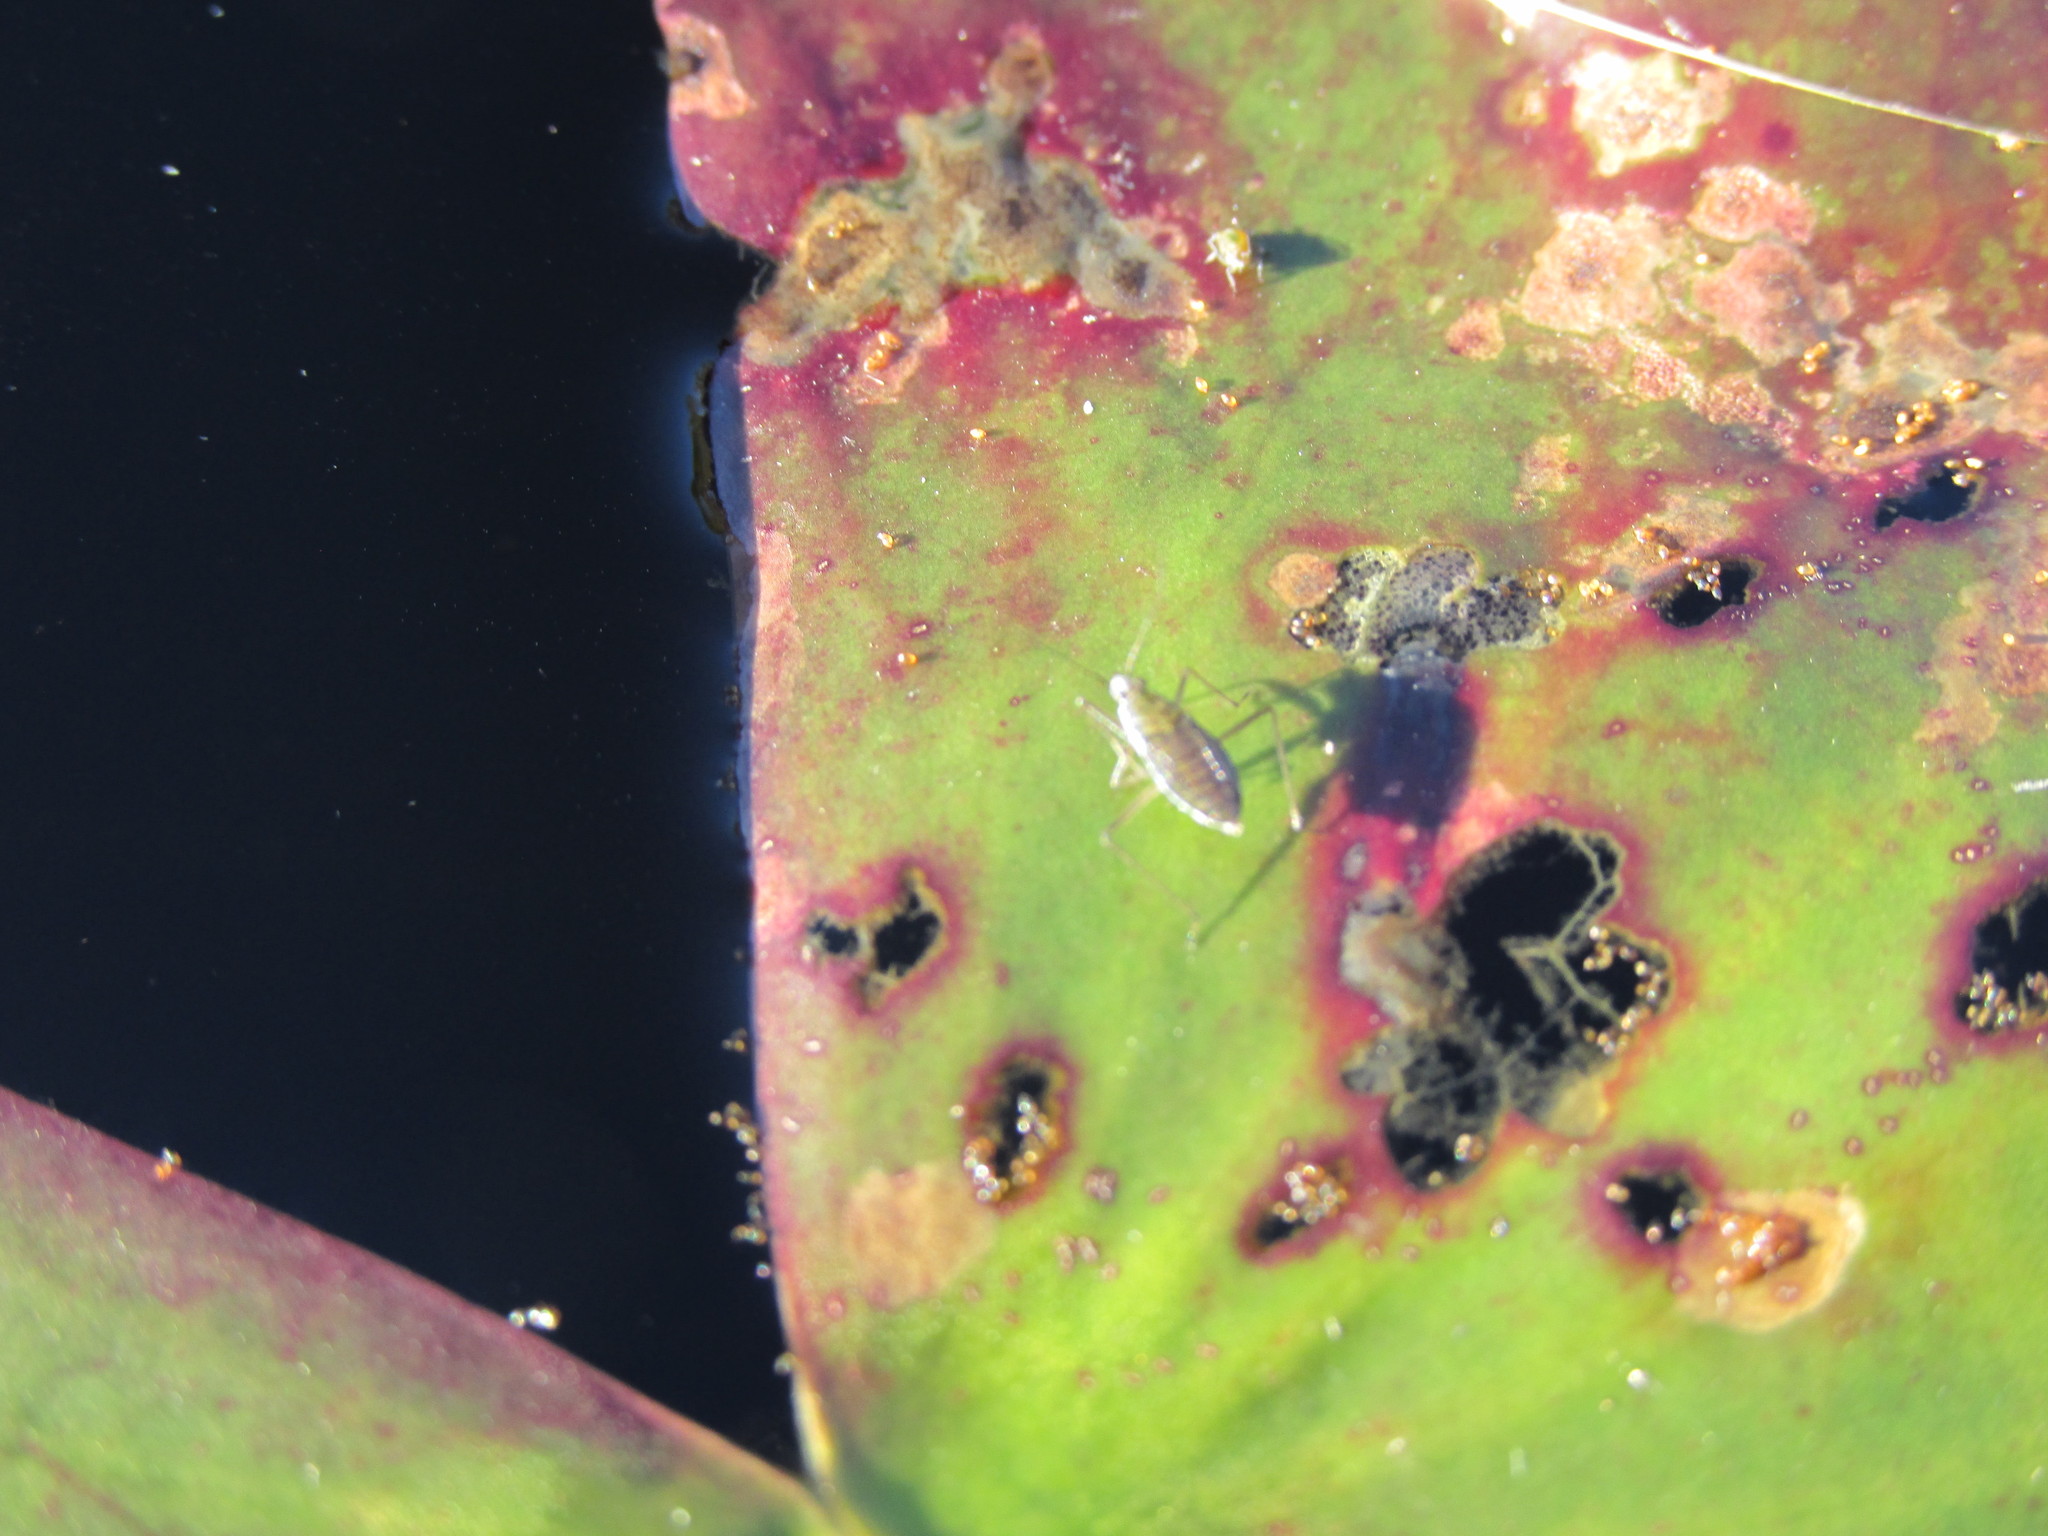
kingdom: Animalia
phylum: Arthropoda
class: Insecta
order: Hemiptera
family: Mesoveliidae
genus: Mesovelia
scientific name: Mesovelia
